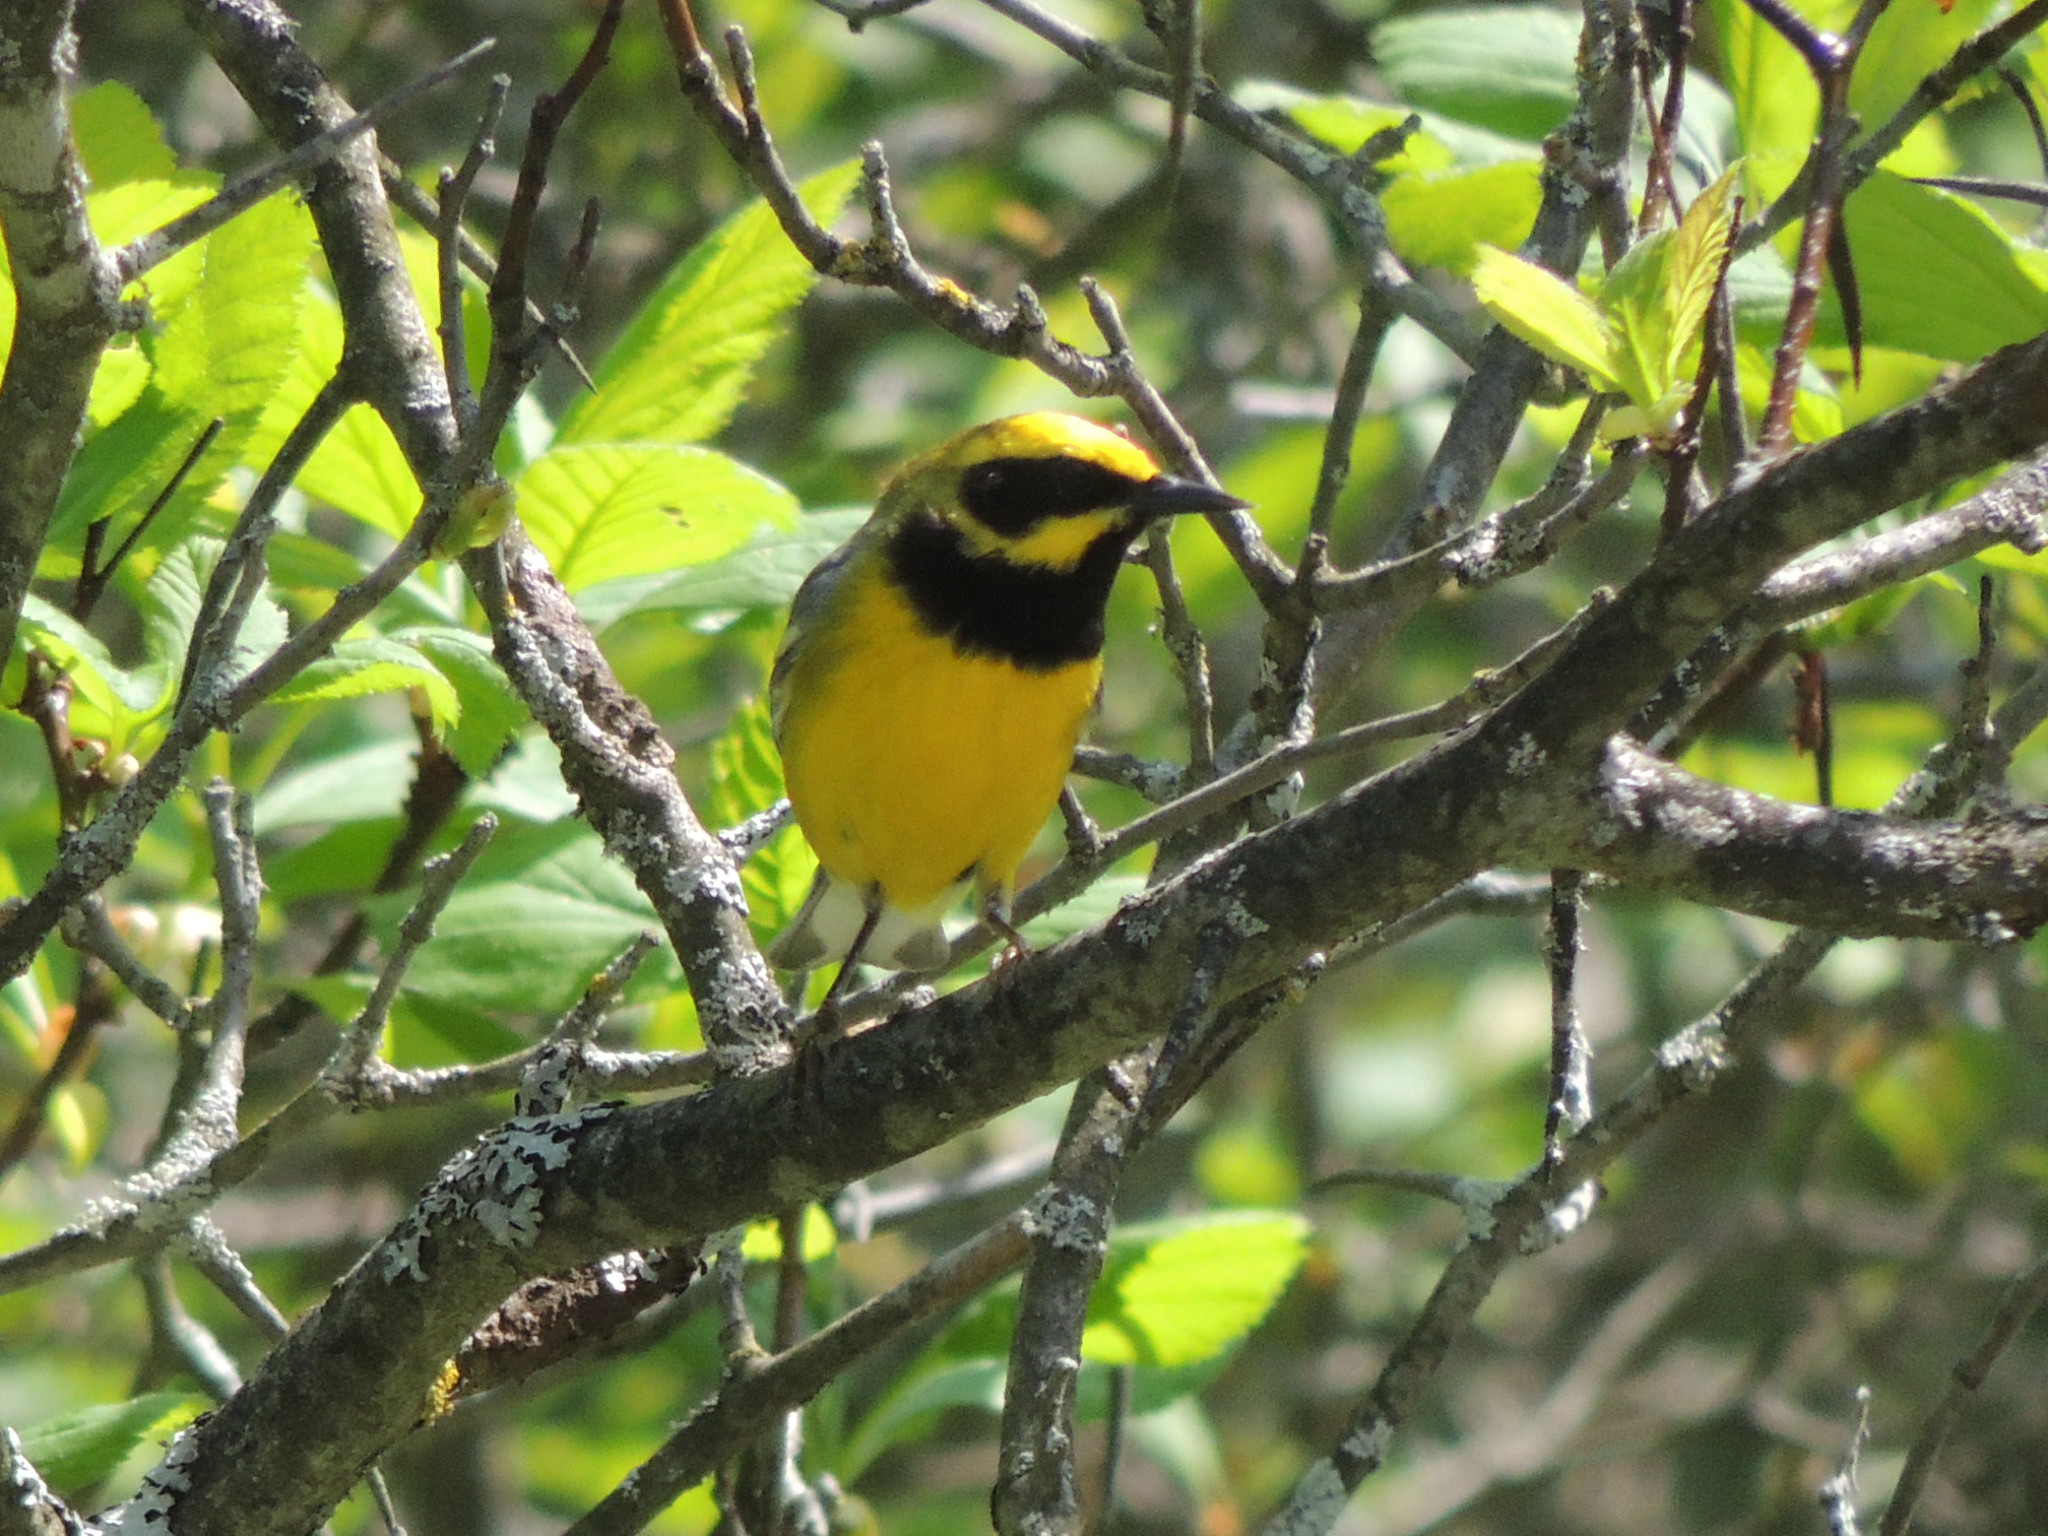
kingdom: Animalia
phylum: Chordata
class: Aves
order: Passeriformes
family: Parulidae
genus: Vermivora
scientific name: Vermivora
